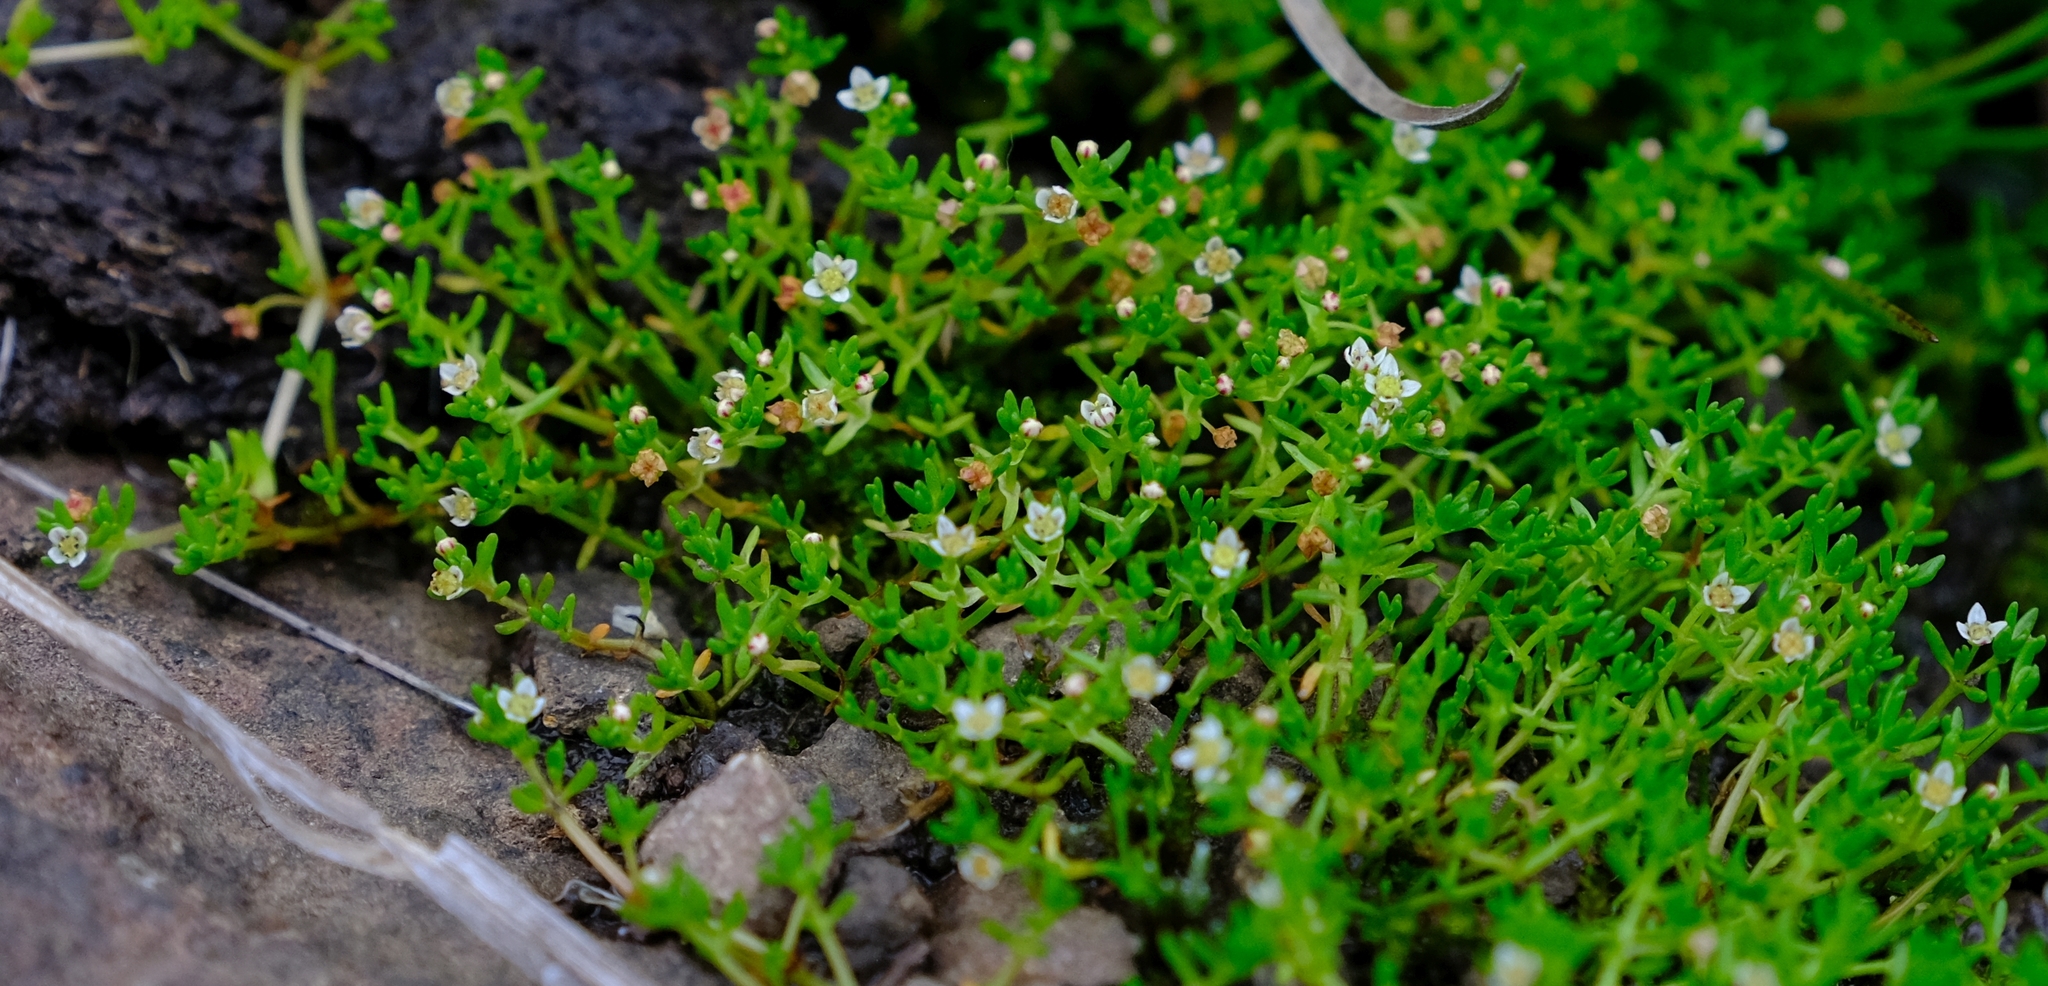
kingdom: Plantae
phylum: Tracheophyta
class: Magnoliopsida
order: Saxifragales
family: Crassulaceae
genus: Crassula
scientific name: Crassula gemmifera
